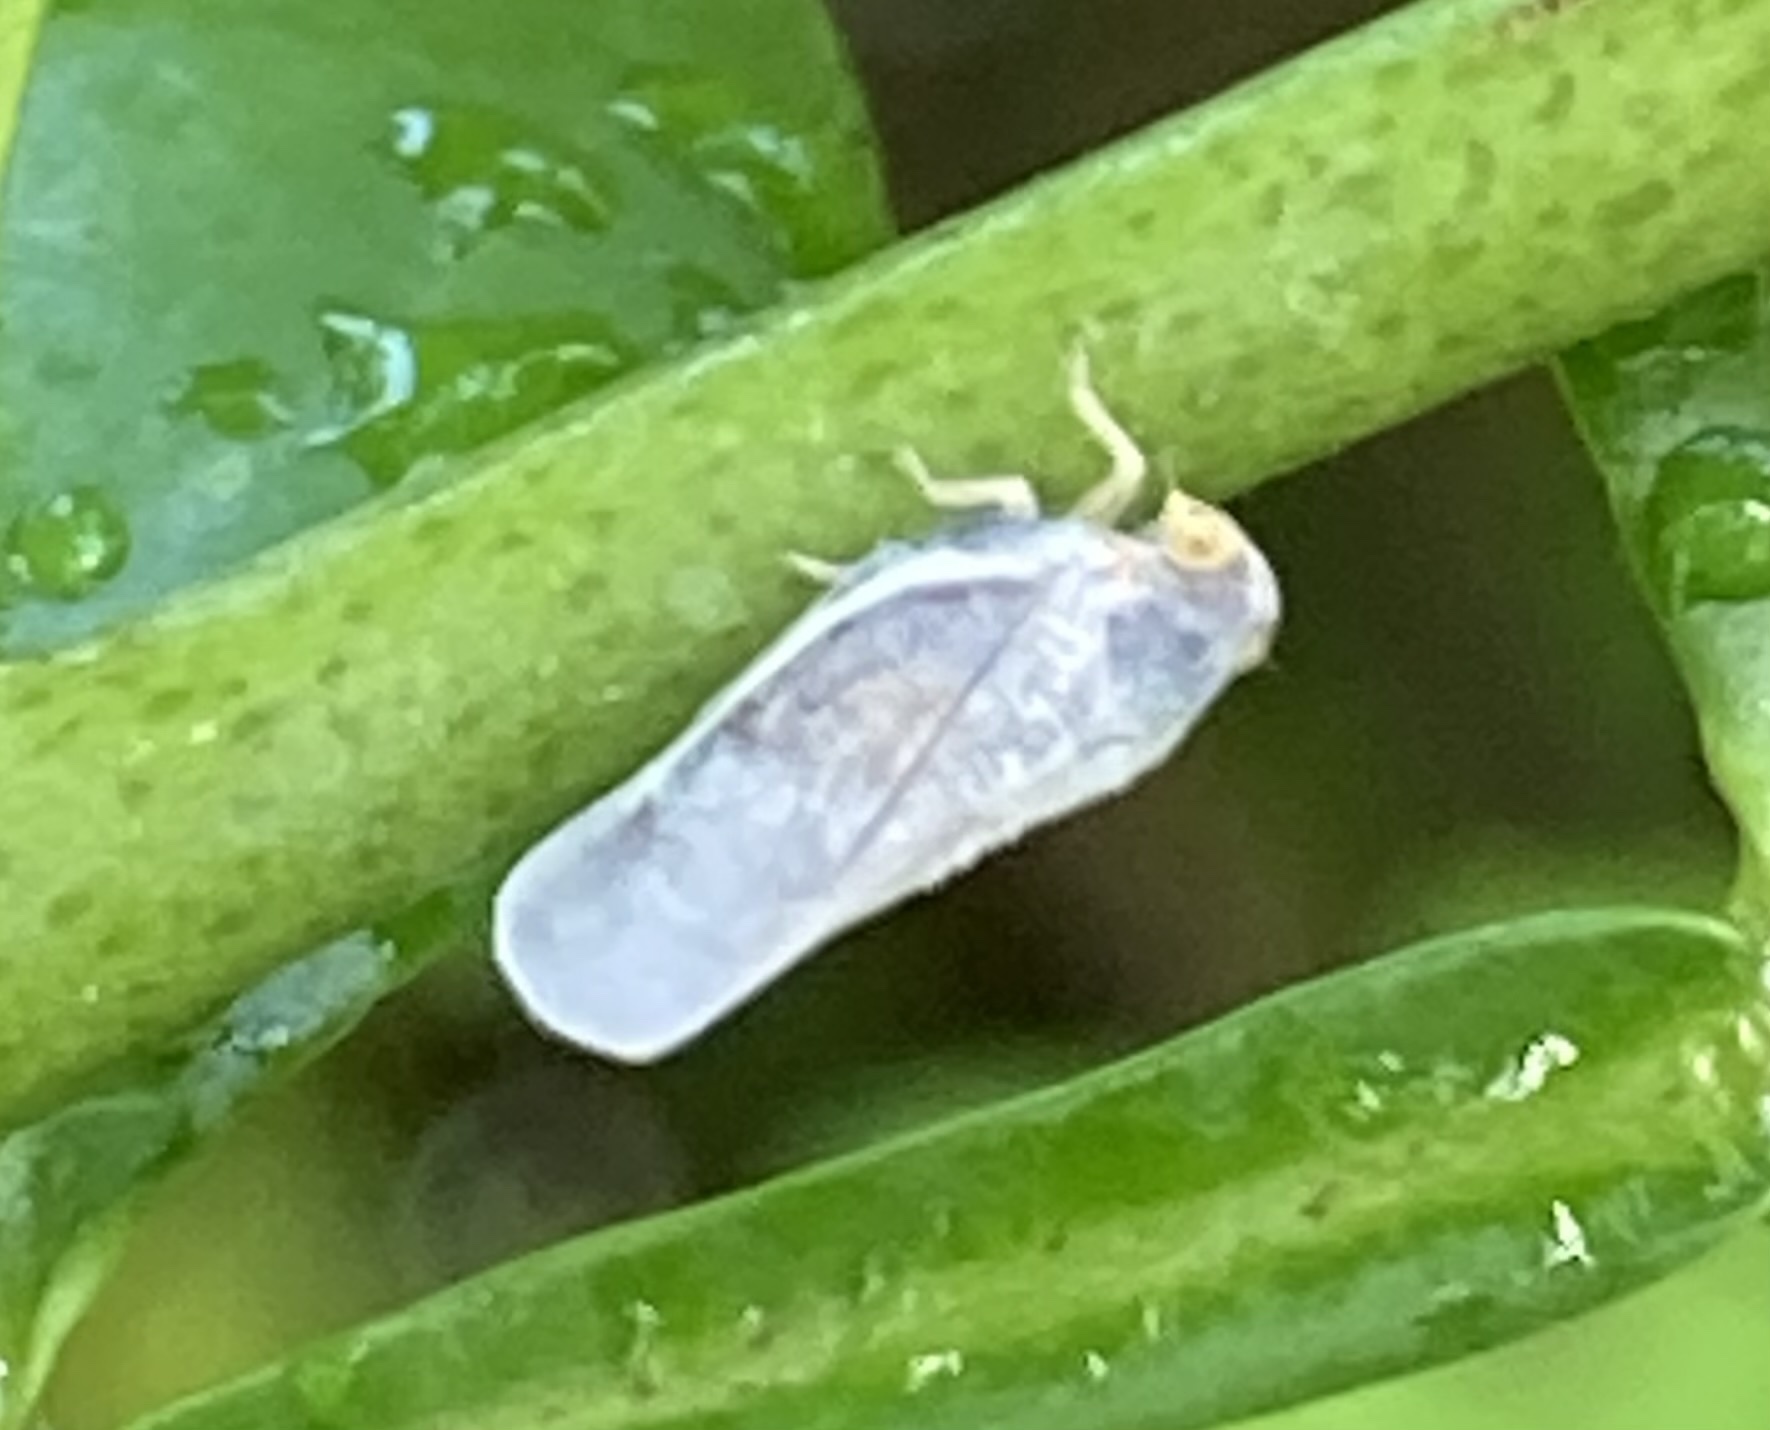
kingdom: Animalia
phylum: Arthropoda
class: Insecta
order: Hemiptera
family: Flatidae
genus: Petrusa
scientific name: Petrusa epilepsis
